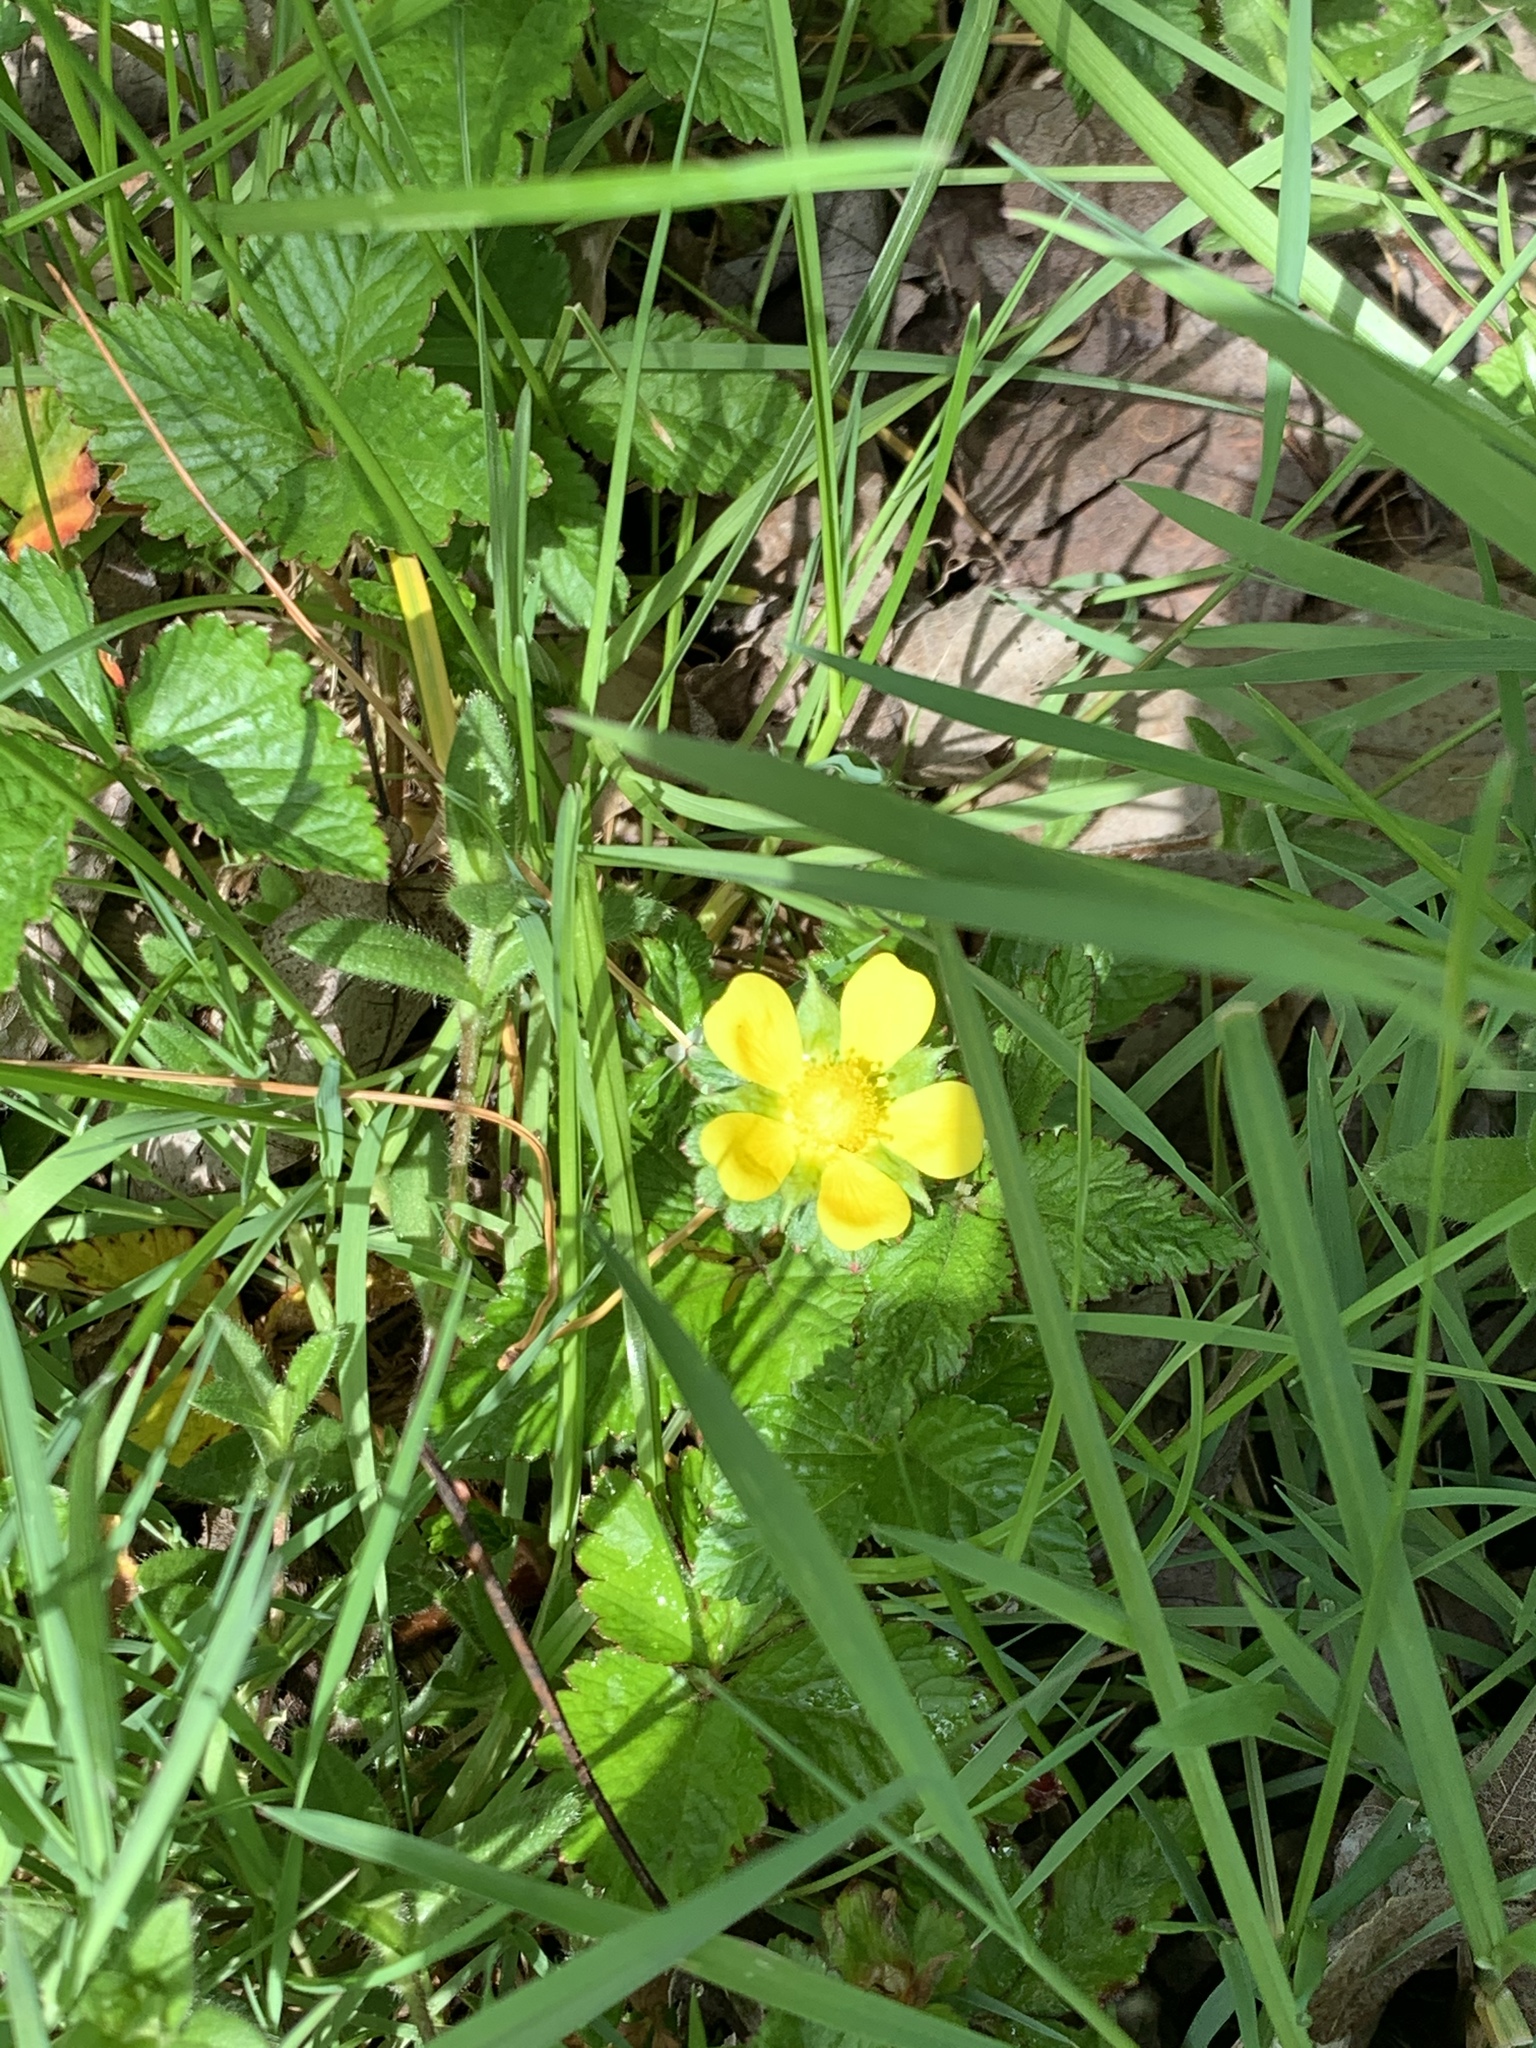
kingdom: Plantae
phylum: Tracheophyta
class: Magnoliopsida
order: Rosales
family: Rosaceae
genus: Potentilla
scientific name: Potentilla indica
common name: Yellow-flowered strawberry
